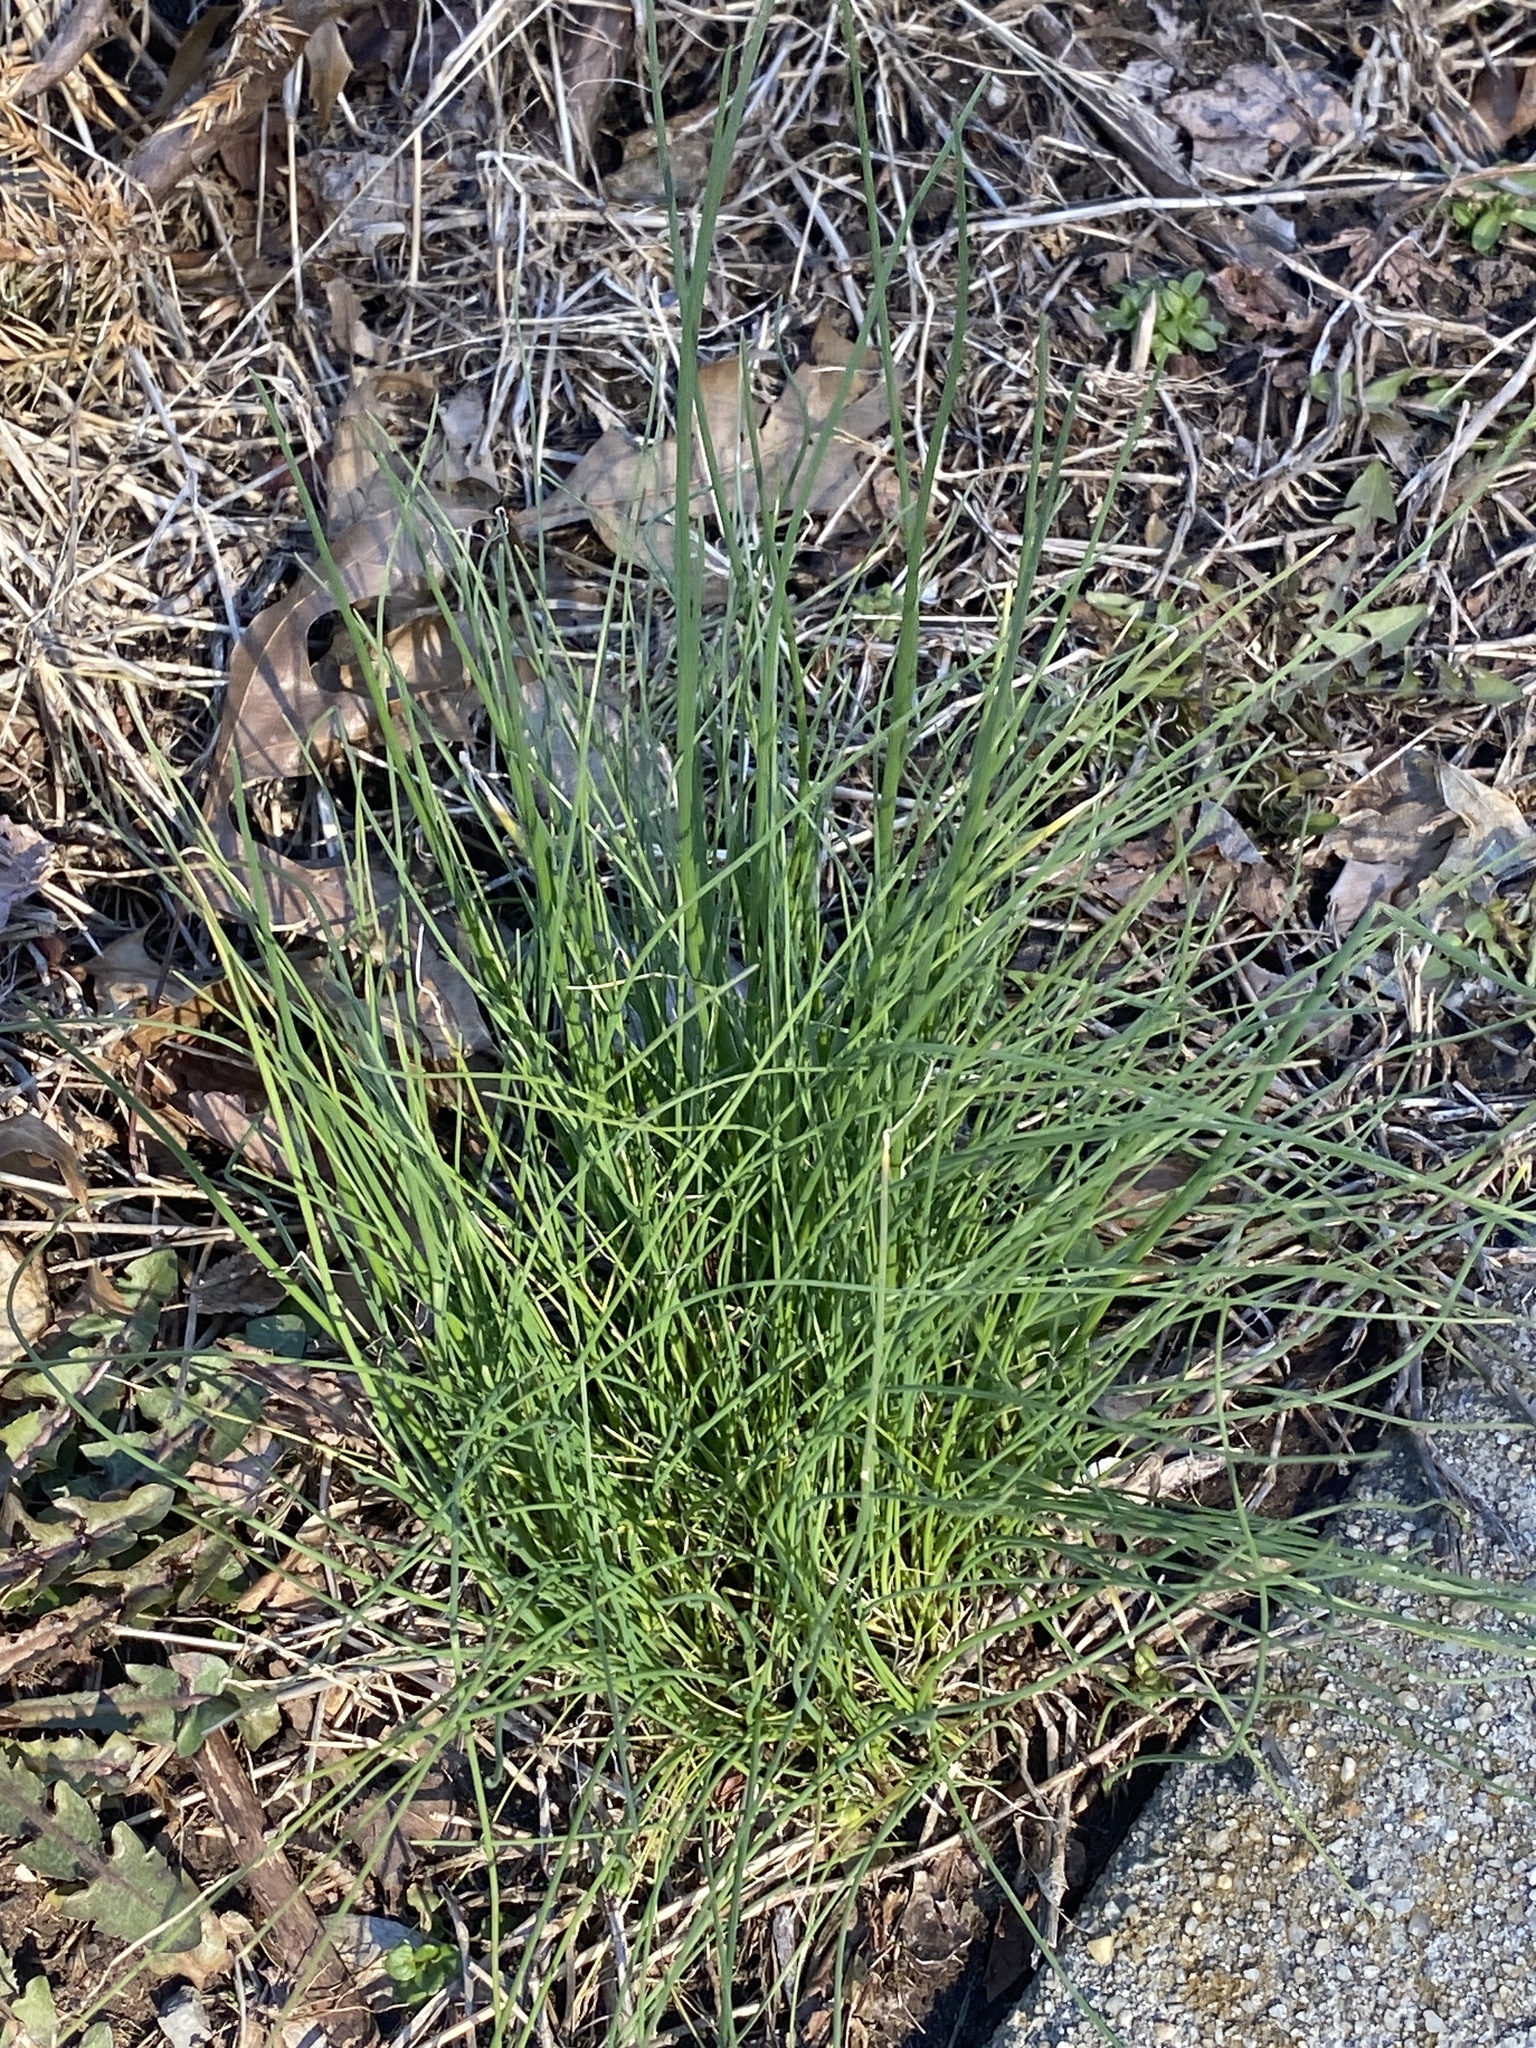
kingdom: Plantae
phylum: Tracheophyta
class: Liliopsida
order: Asparagales
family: Amaryllidaceae
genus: Allium
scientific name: Allium vineale
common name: Crow garlic
